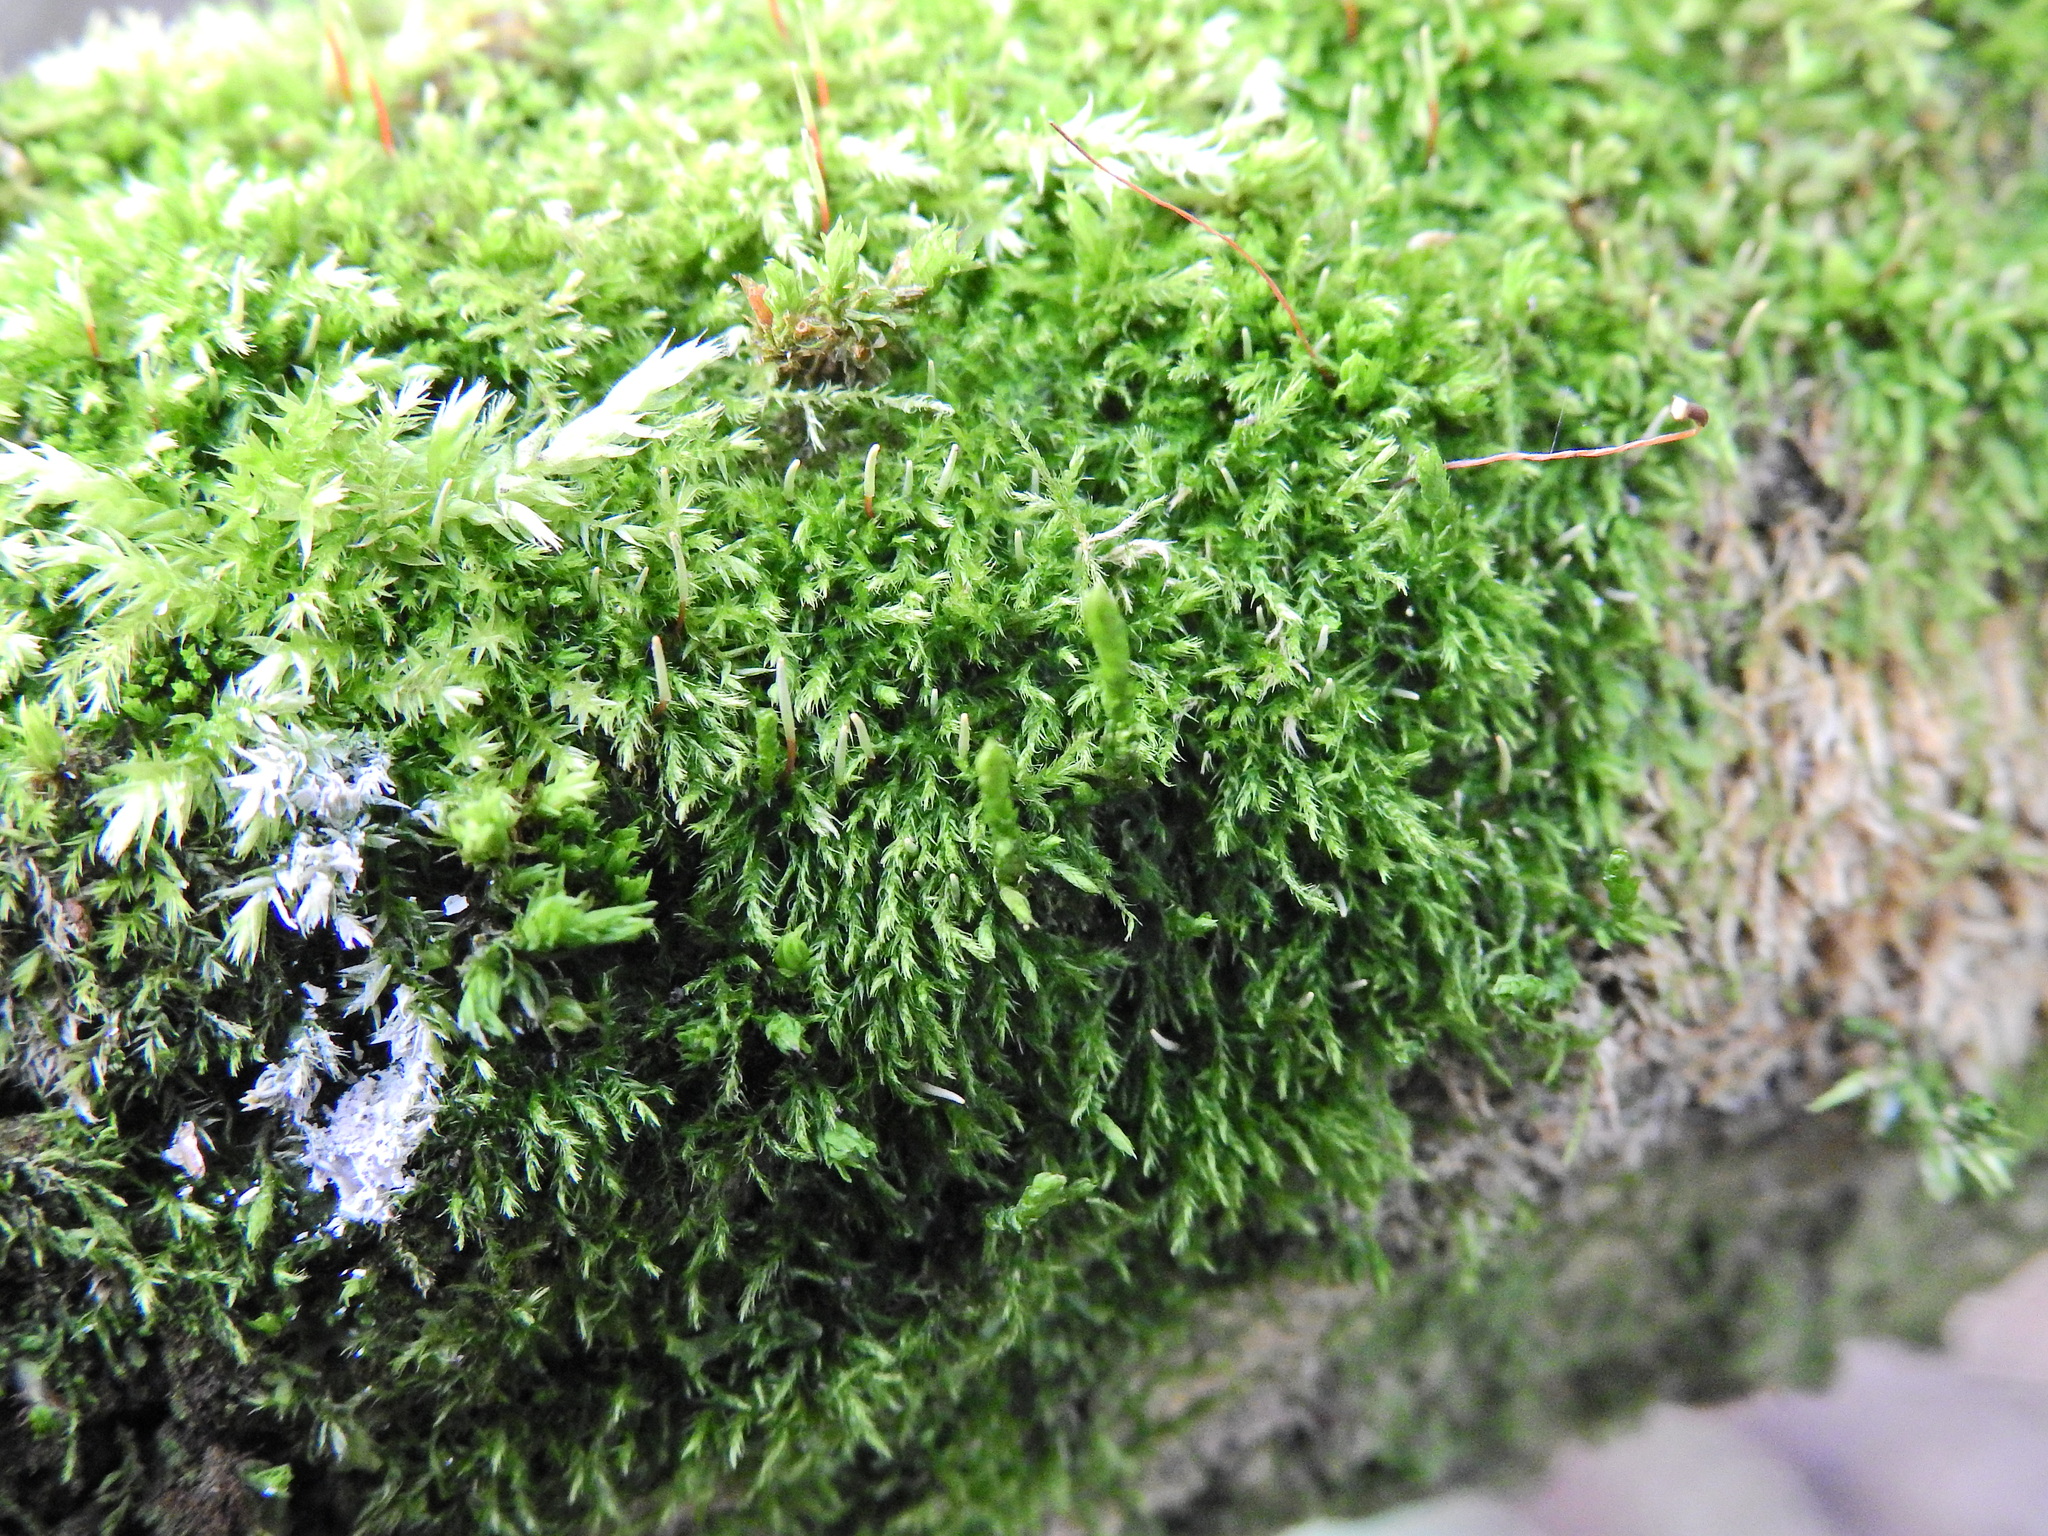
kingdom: Plantae
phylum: Bryophyta
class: Bryopsida
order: Hypnales
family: Brachytheciaceae
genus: Rhynchostegium
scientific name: Rhynchostegium confertum
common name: Clustered feather-moss
